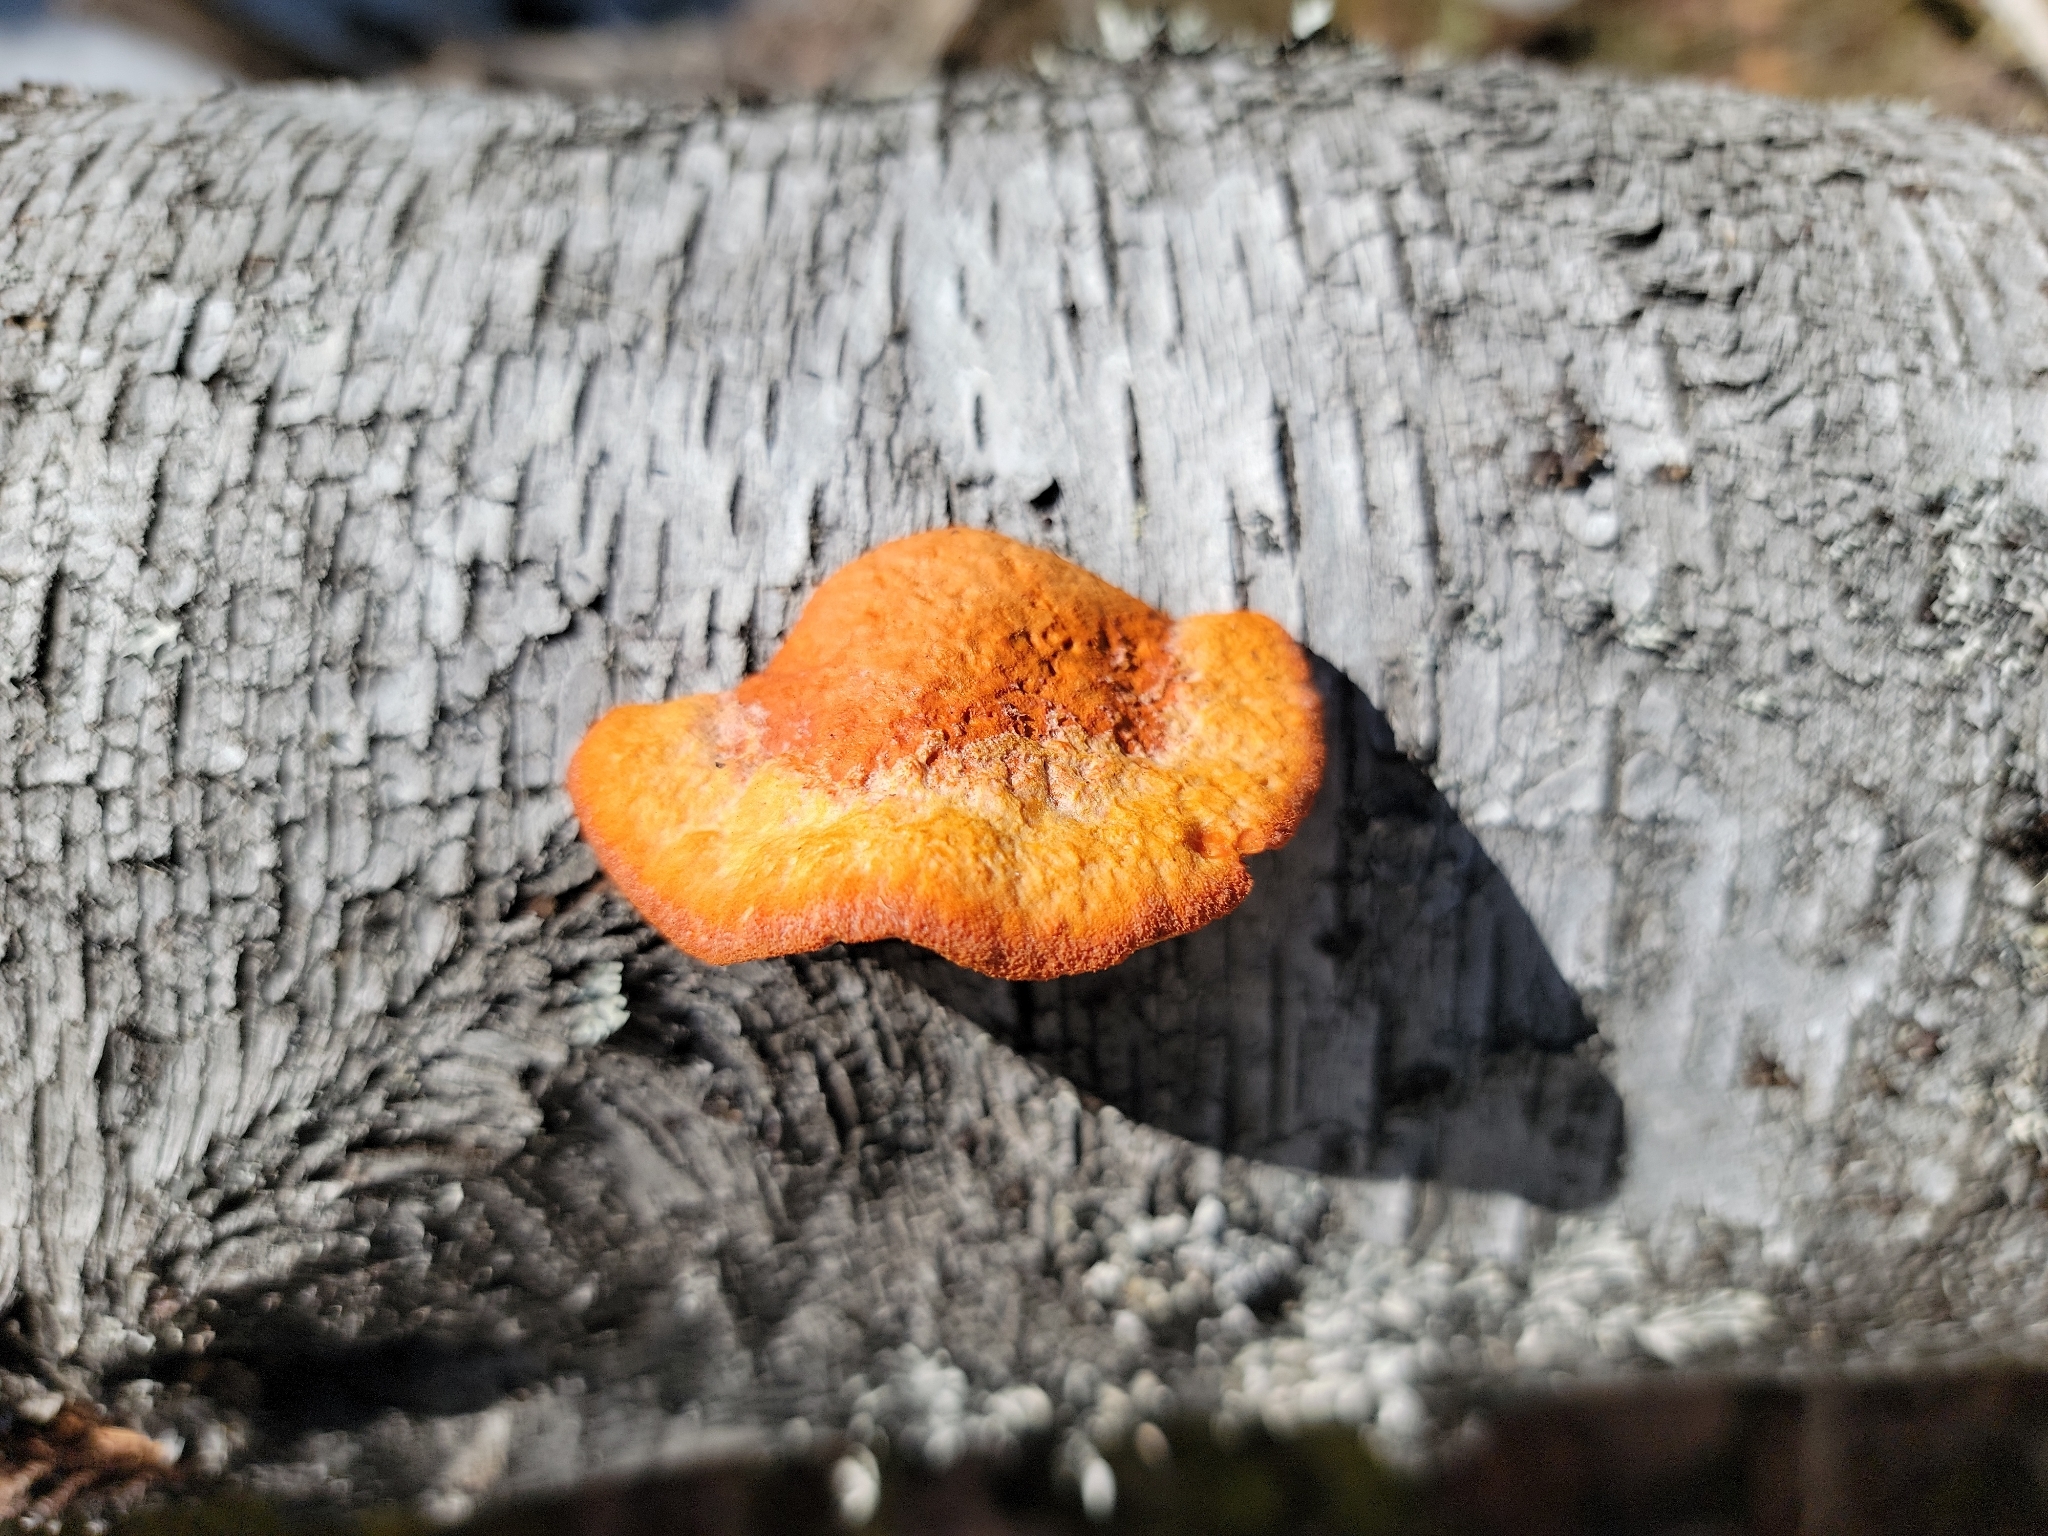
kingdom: Fungi
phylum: Basidiomycota
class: Agaricomycetes
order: Polyporales
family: Polyporaceae
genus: Trametes
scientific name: Trametes cinnabarina
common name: Northern cinnabar polypore
